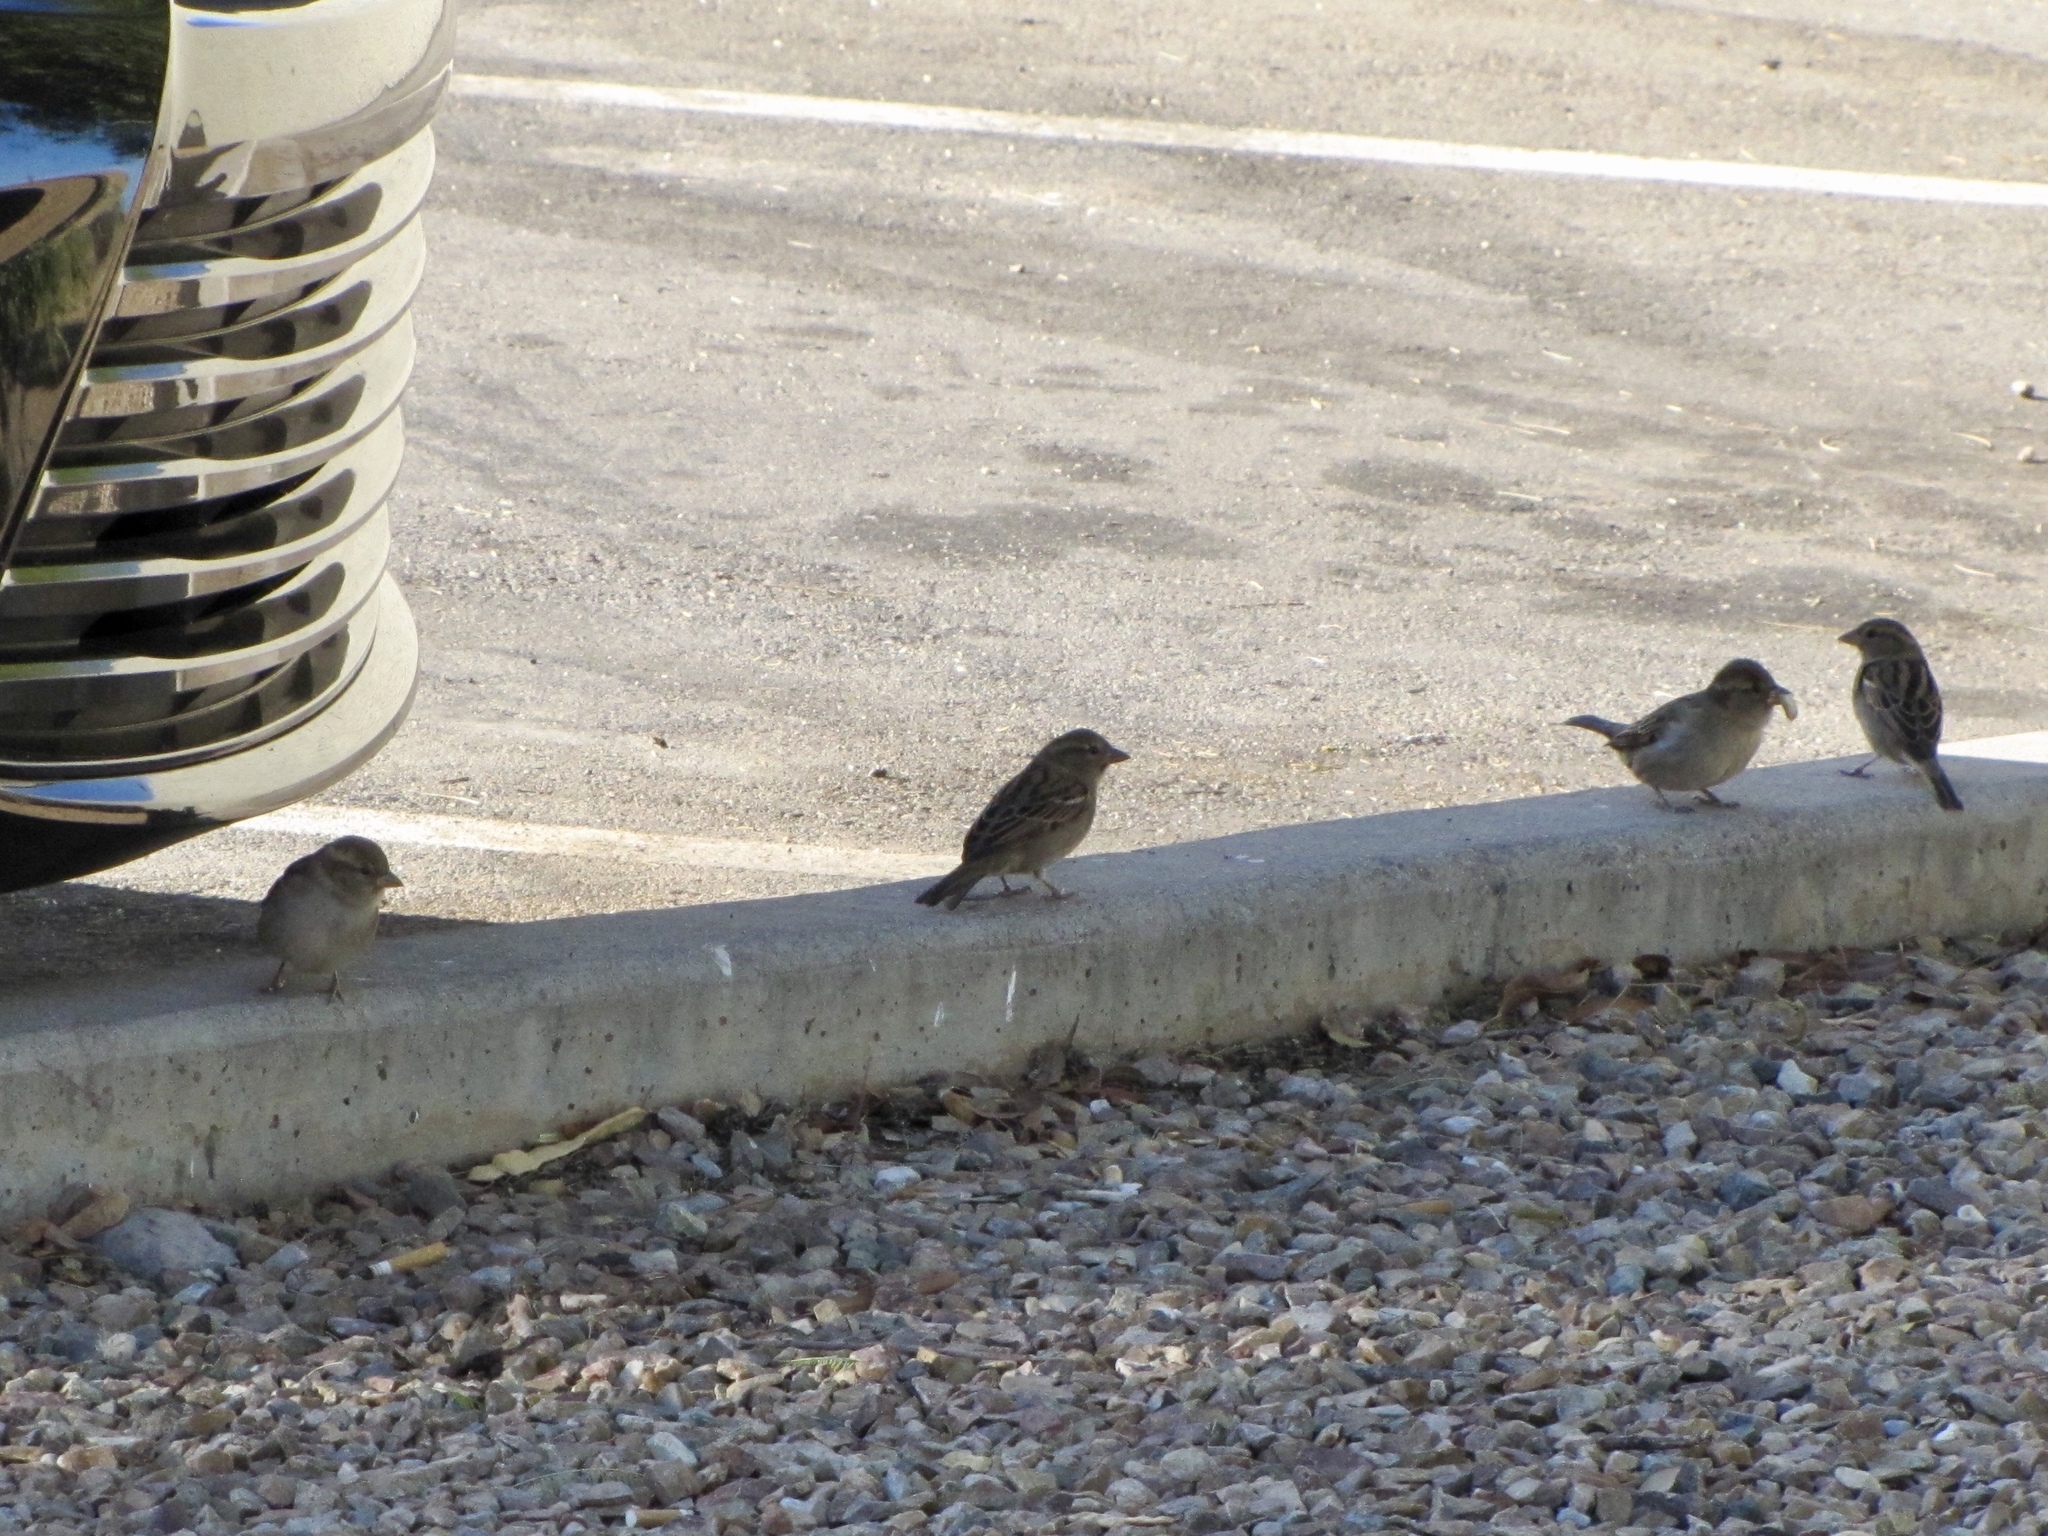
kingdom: Animalia
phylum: Chordata
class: Aves
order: Passeriformes
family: Passeridae
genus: Passer
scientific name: Passer domesticus
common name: House sparrow
